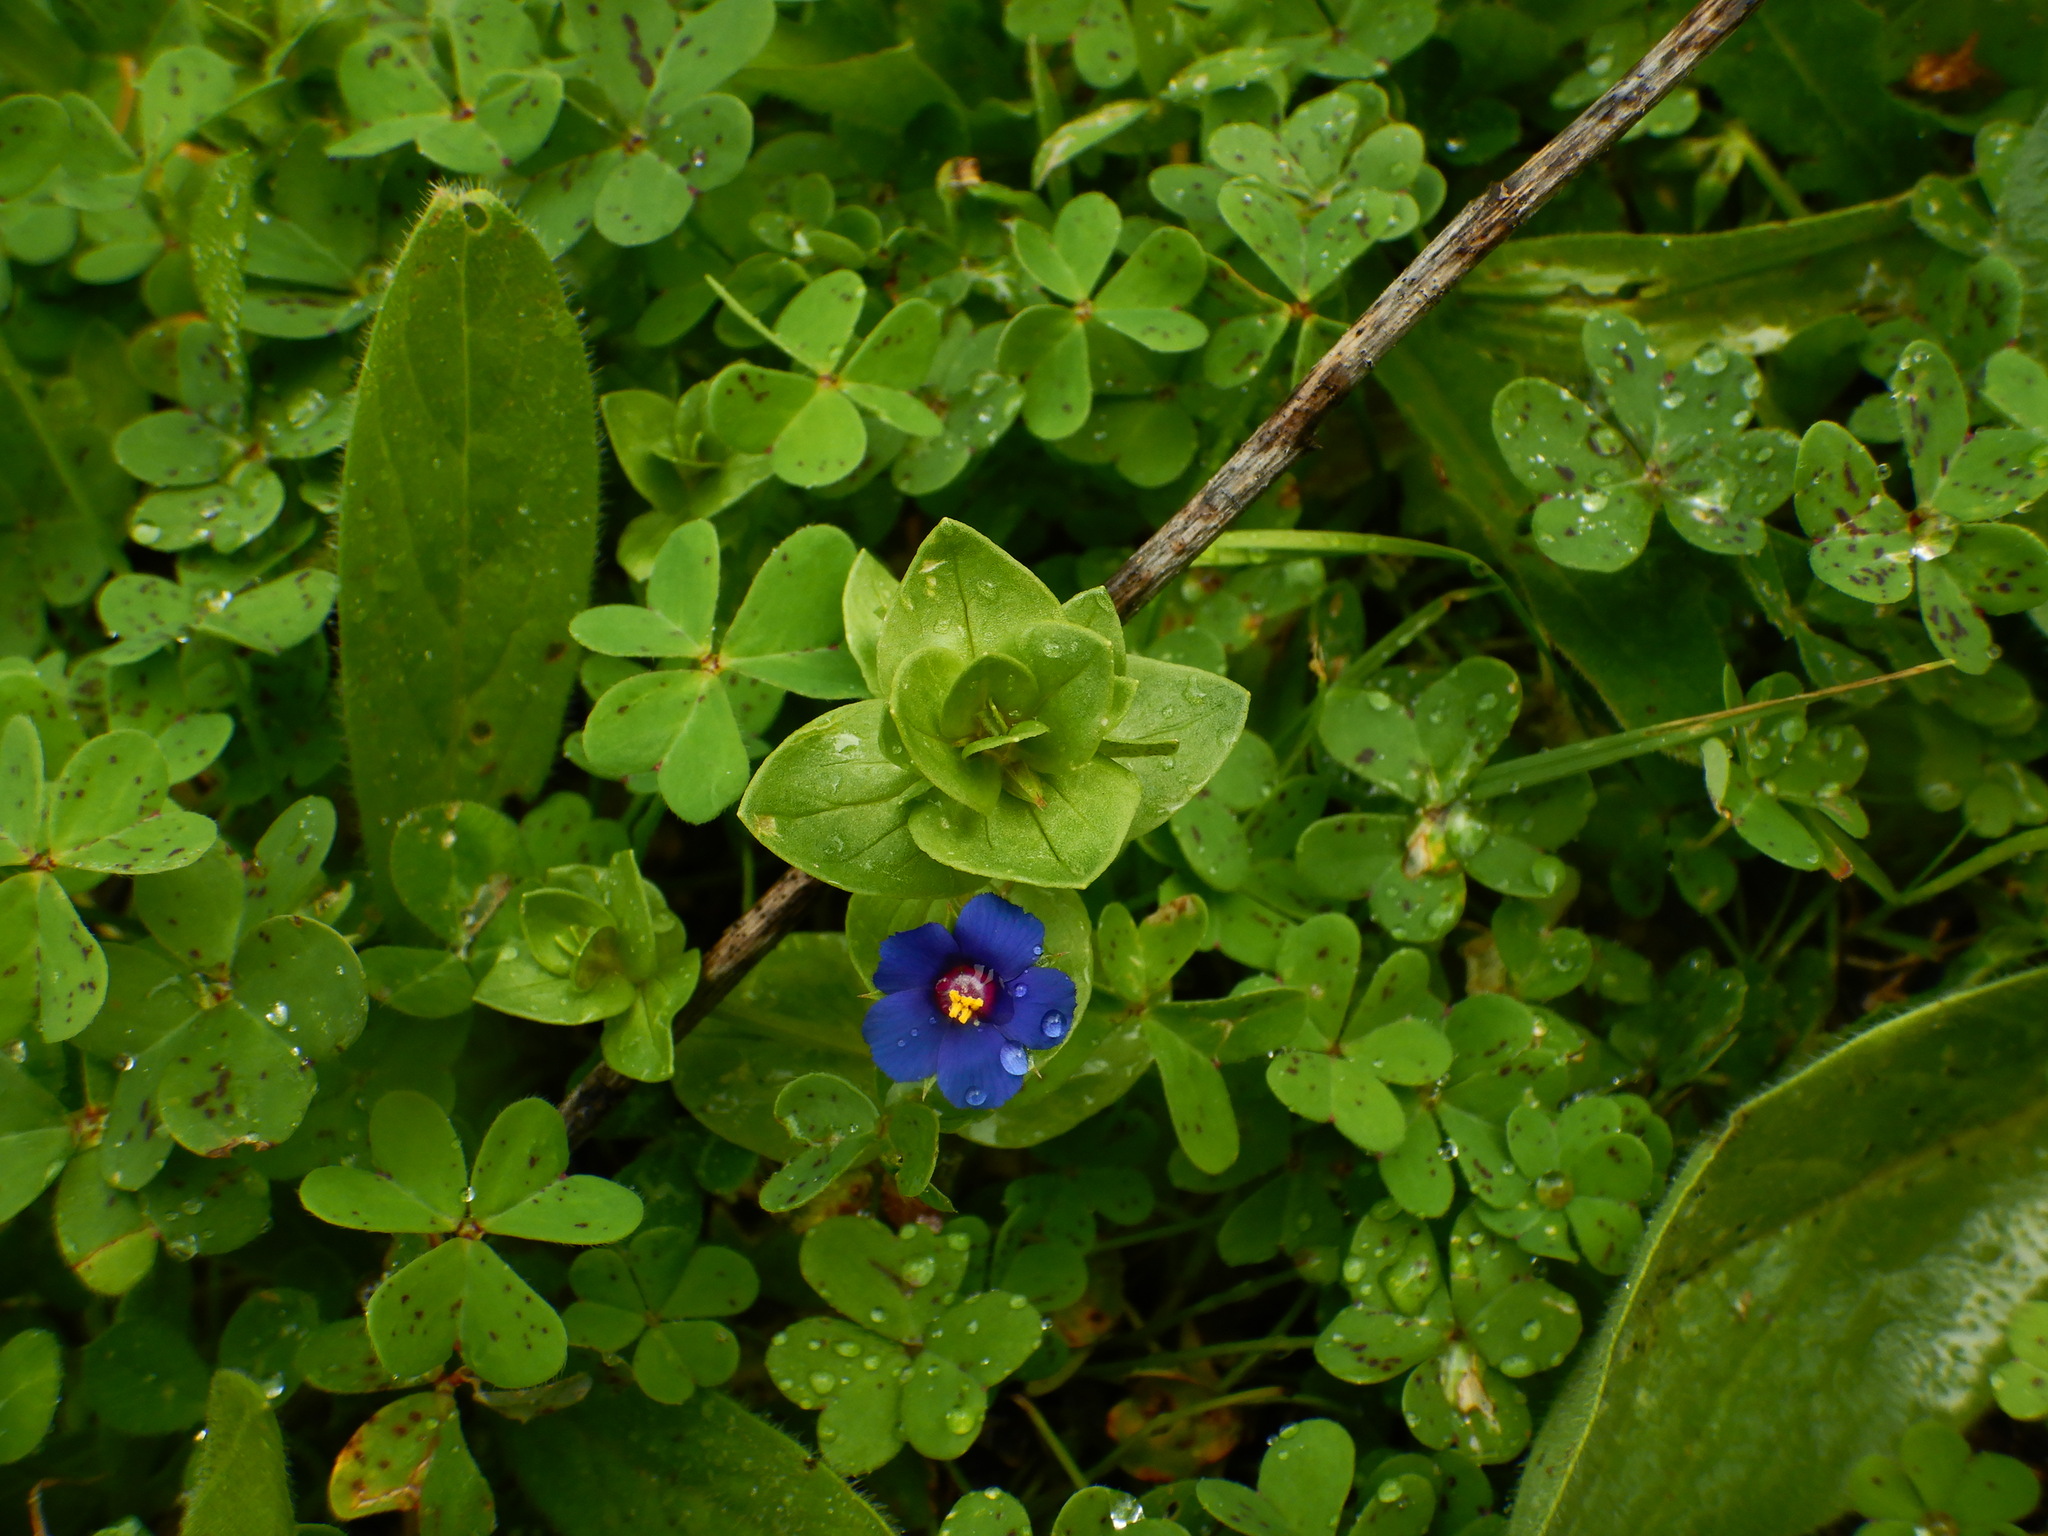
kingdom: Plantae
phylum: Tracheophyta
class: Magnoliopsida
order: Ericales
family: Primulaceae
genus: Lysimachia
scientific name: Lysimachia loeflingii
